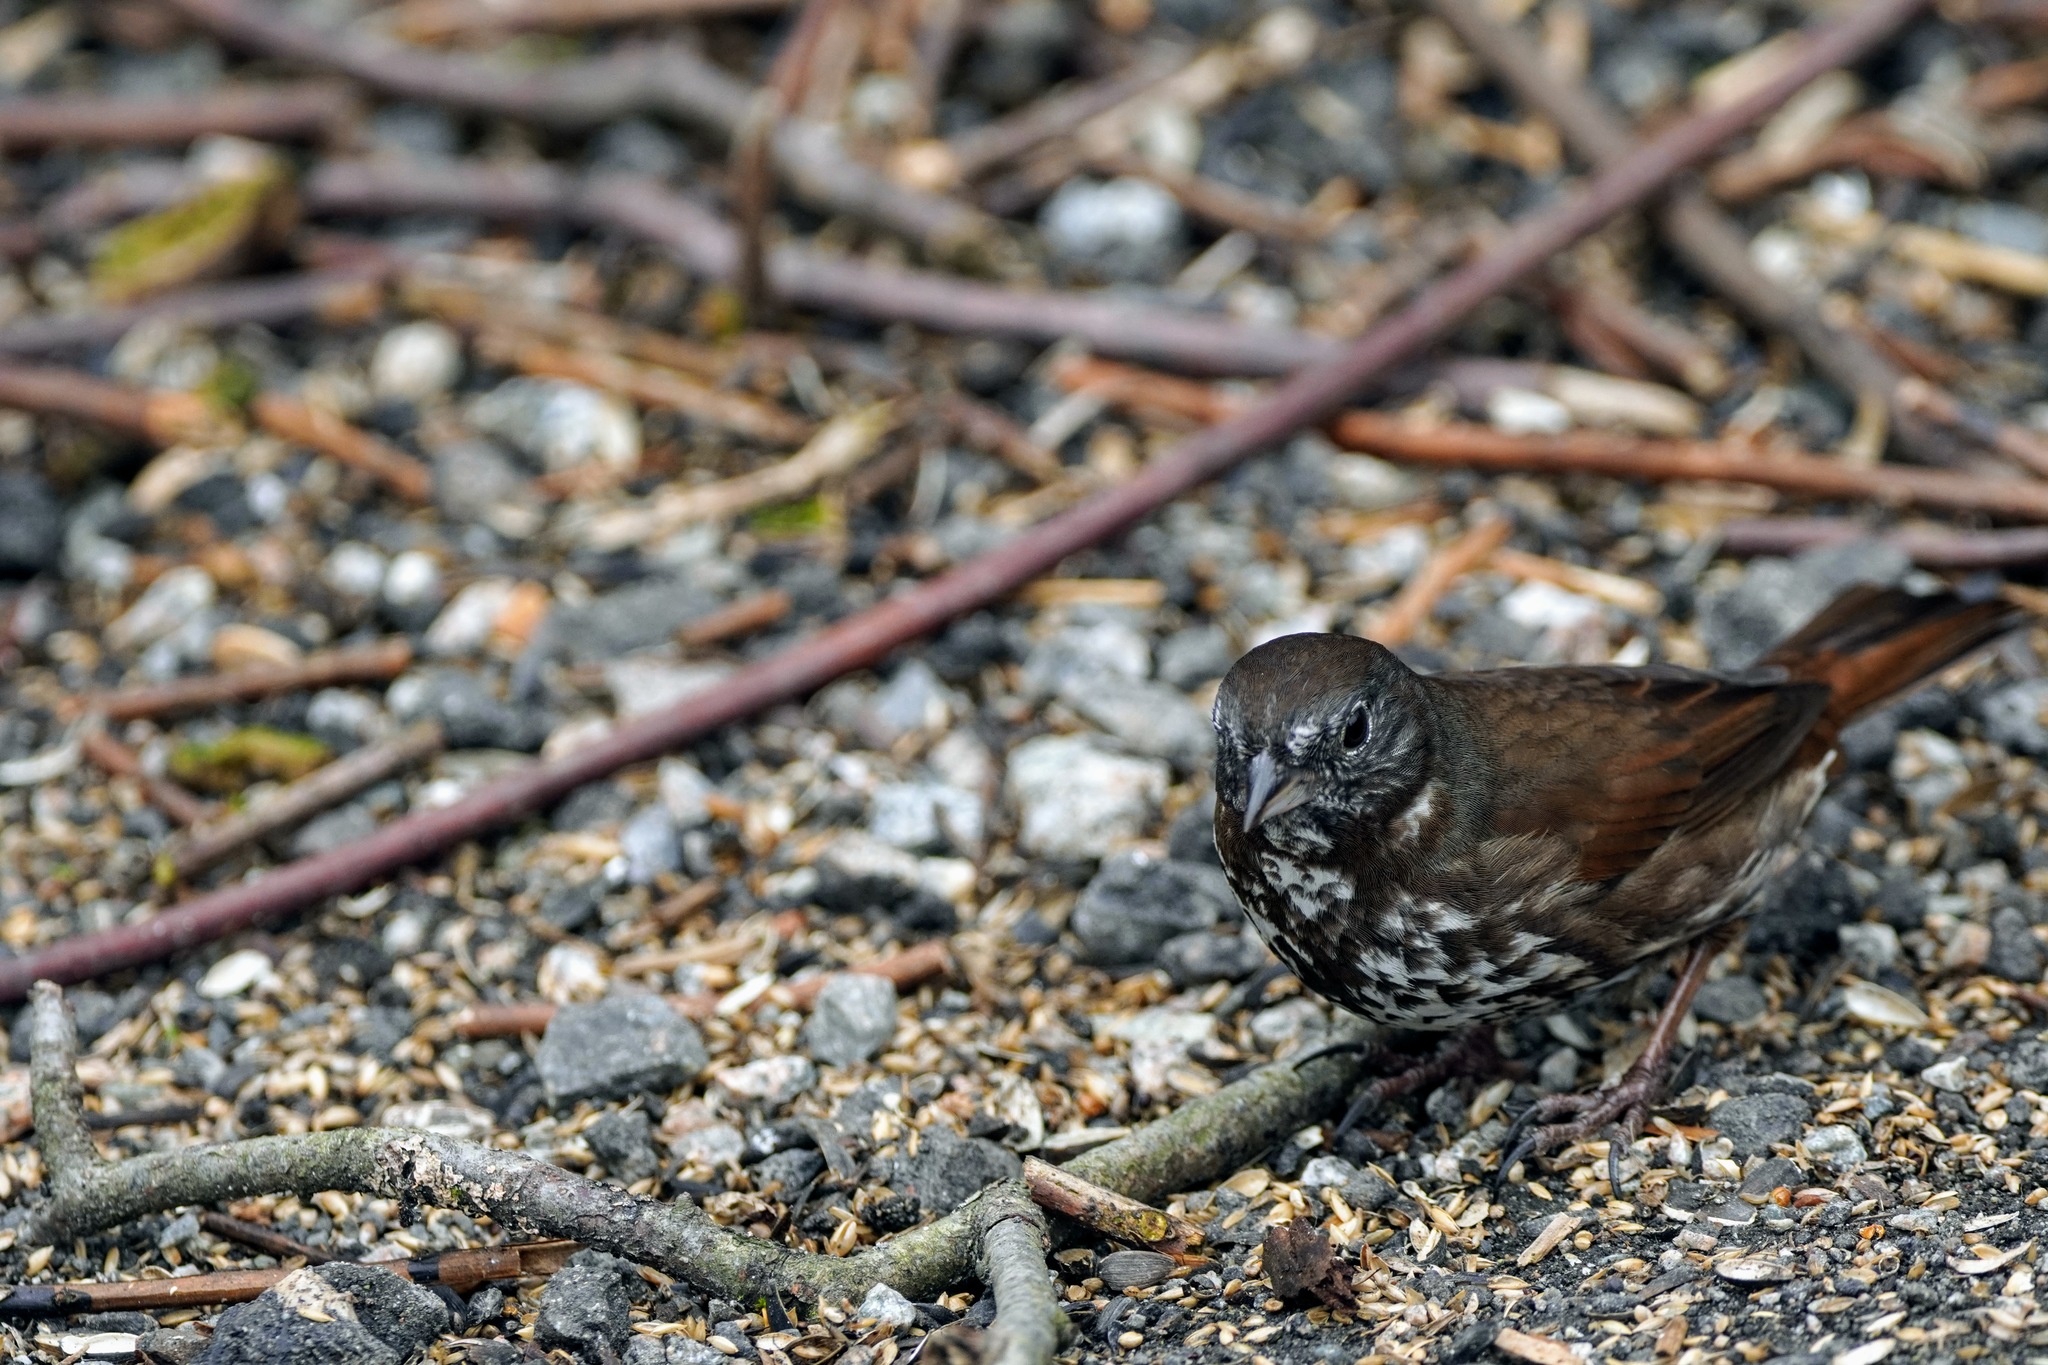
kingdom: Animalia
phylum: Chordata
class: Aves
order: Passeriformes
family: Passerellidae
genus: Passerella
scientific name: Passerella iliaca
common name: Fox sparrow
